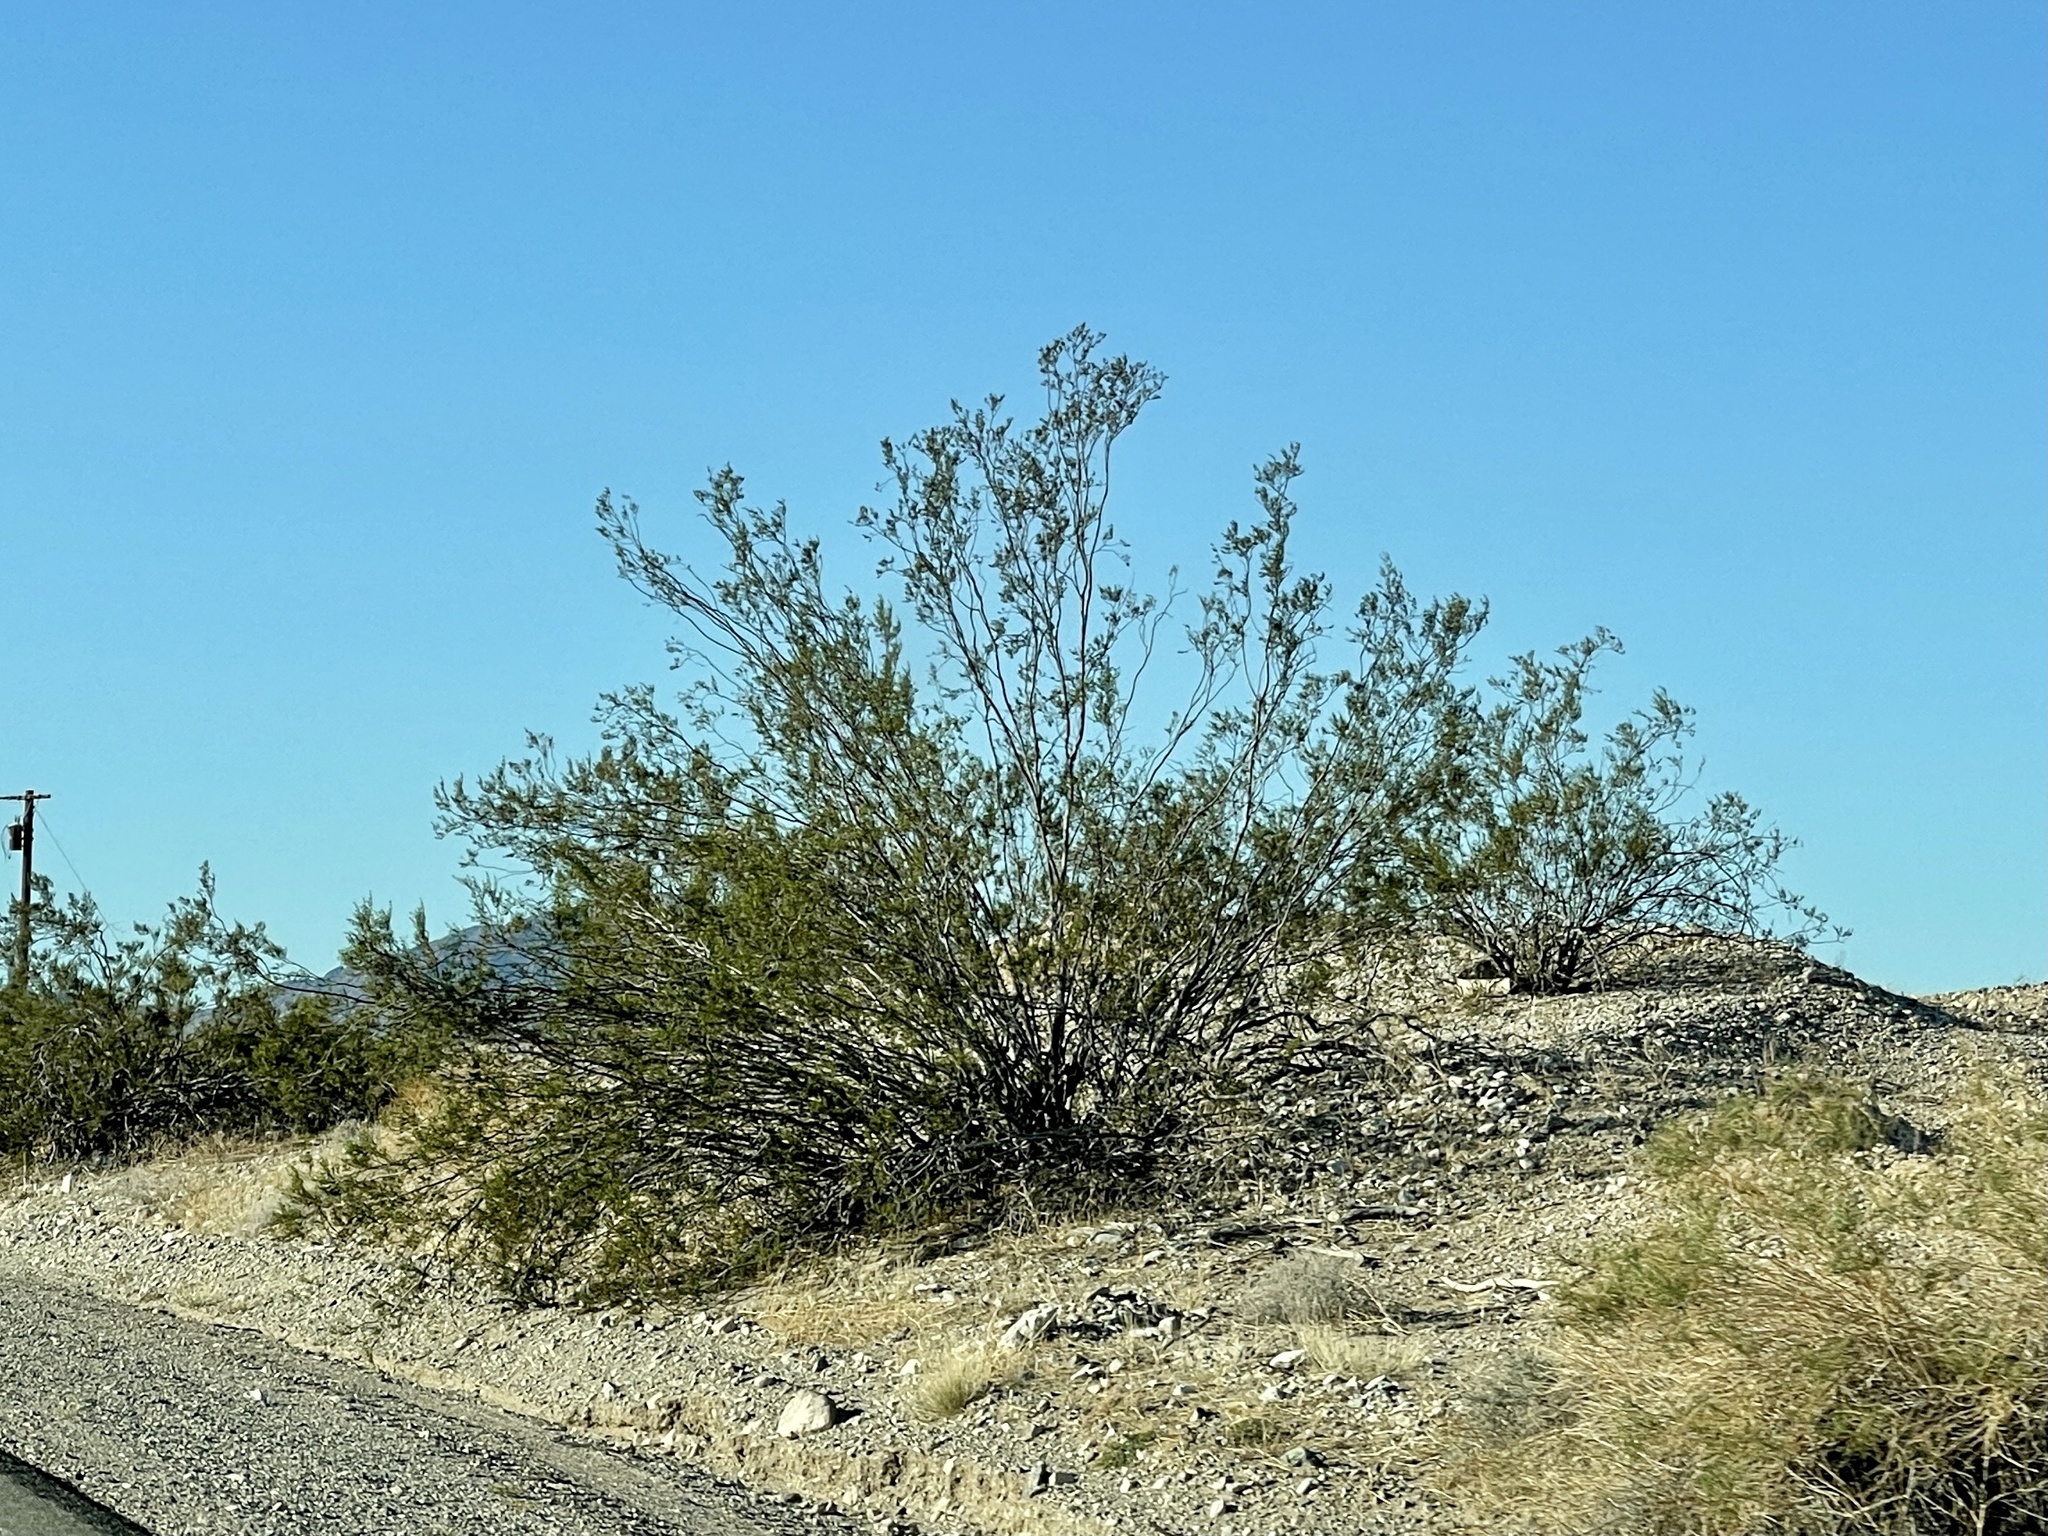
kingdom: Plantae
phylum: Tracheophyta
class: Magnoliopsida
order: Zygophyllales
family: Zygophyllaceae
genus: Larrea
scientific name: Larrea tridentata
